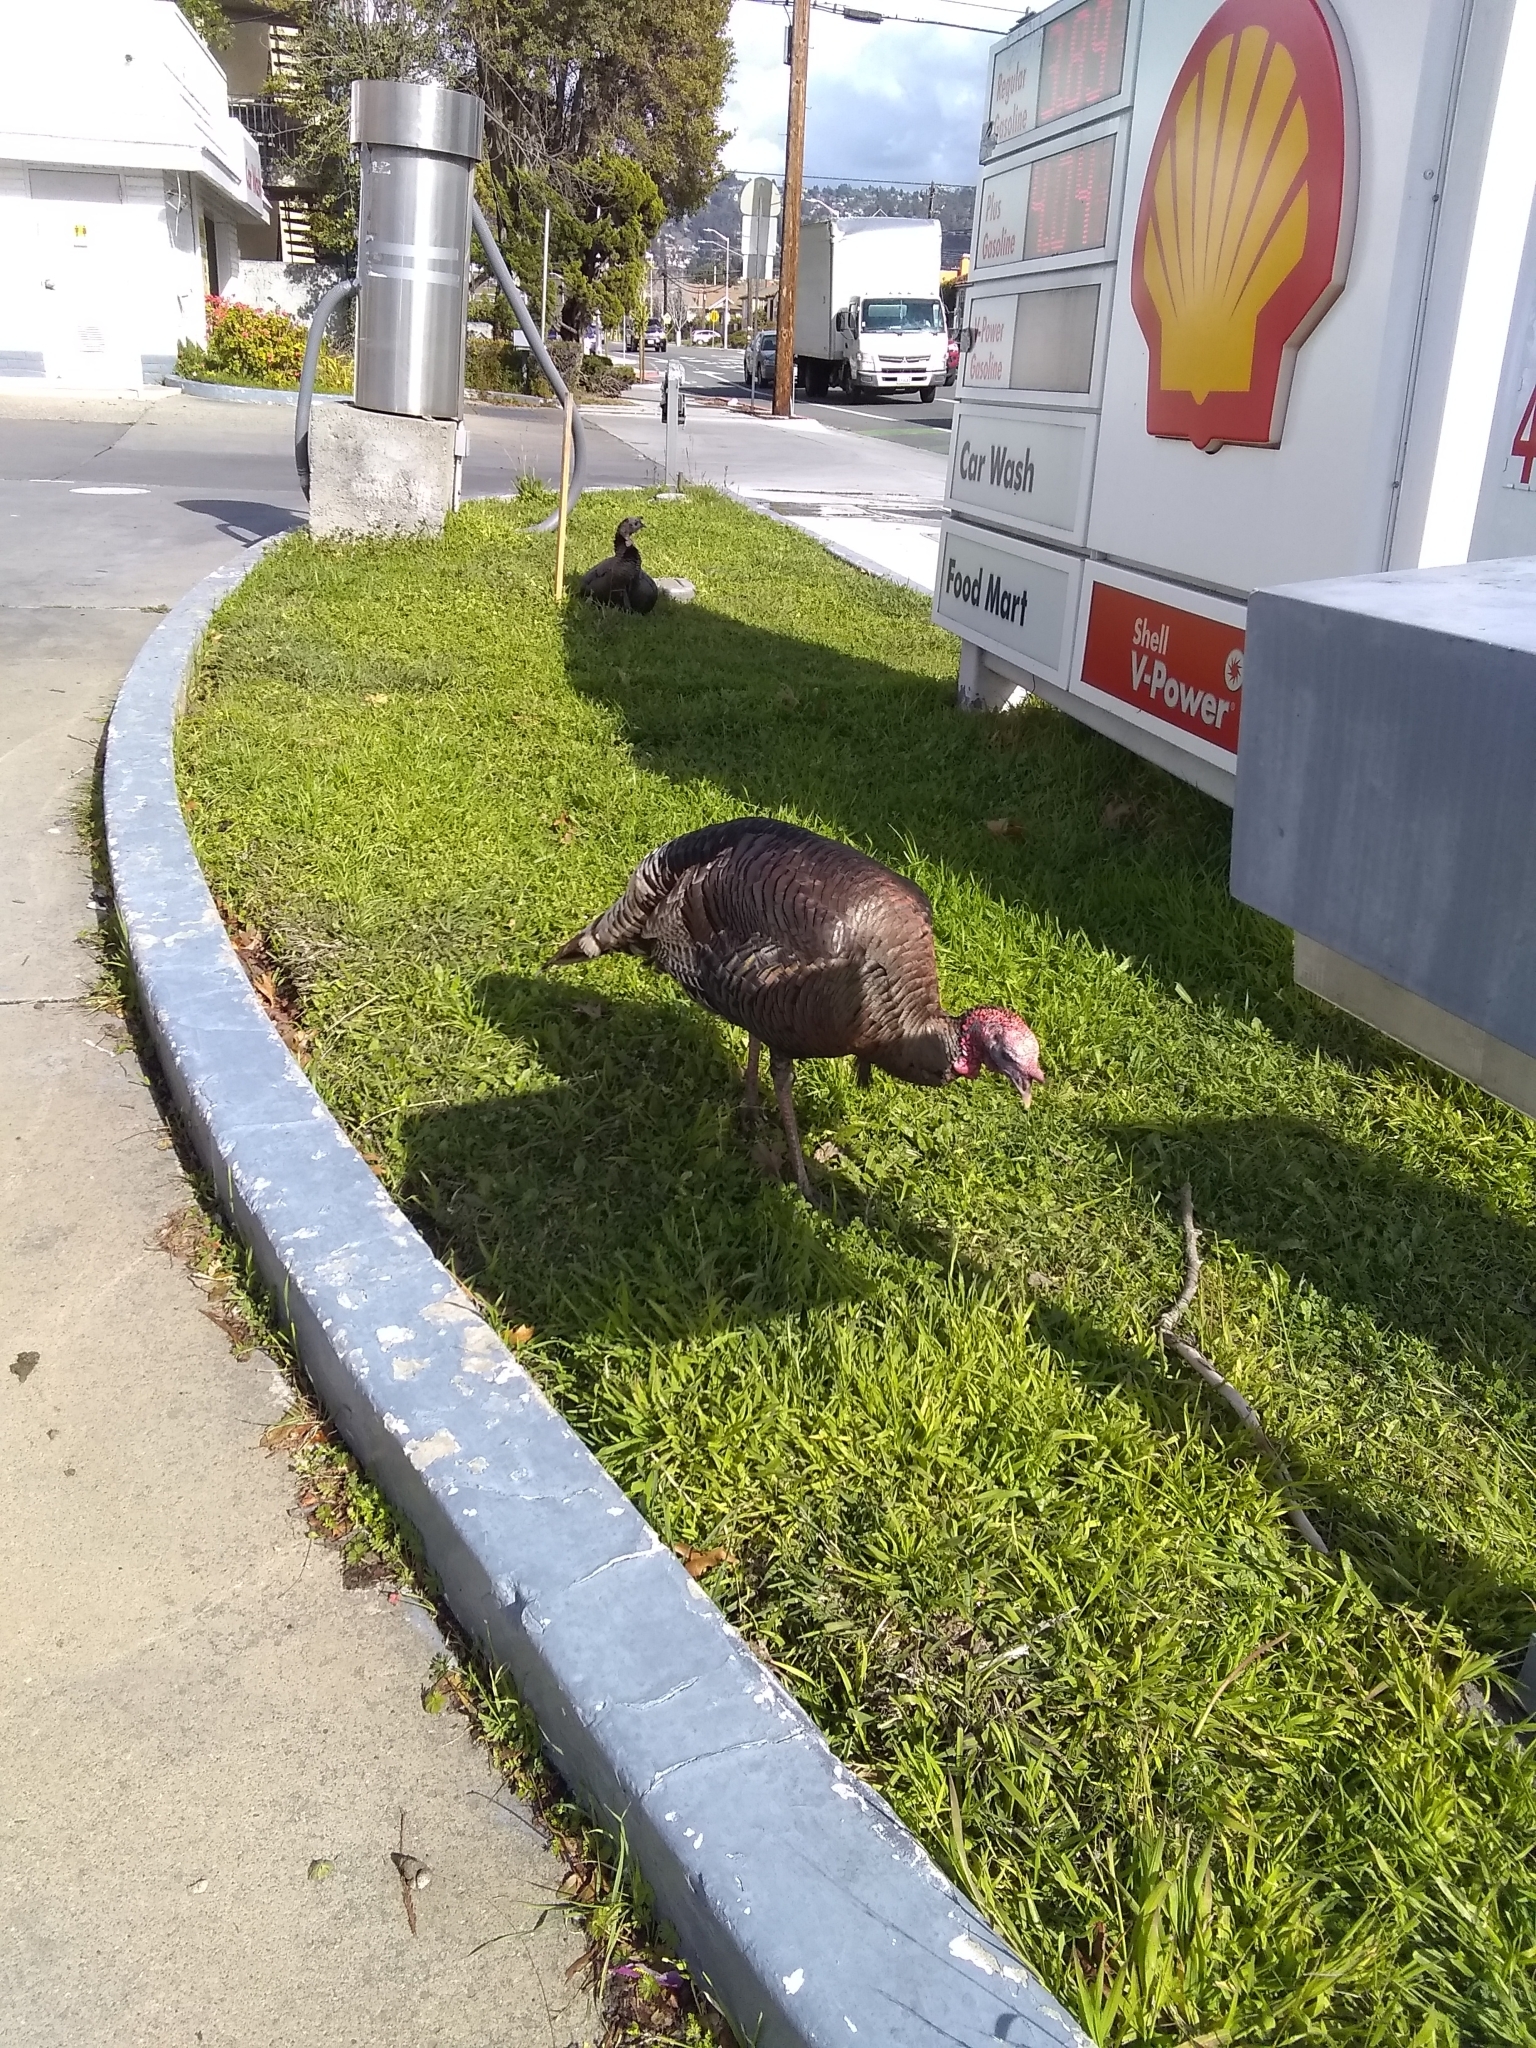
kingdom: Animalia
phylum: Chordata
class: Aves
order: Galliformes
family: Phasianidae
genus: Meleagris
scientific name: Meleagris gallopavo
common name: Wild turkey
